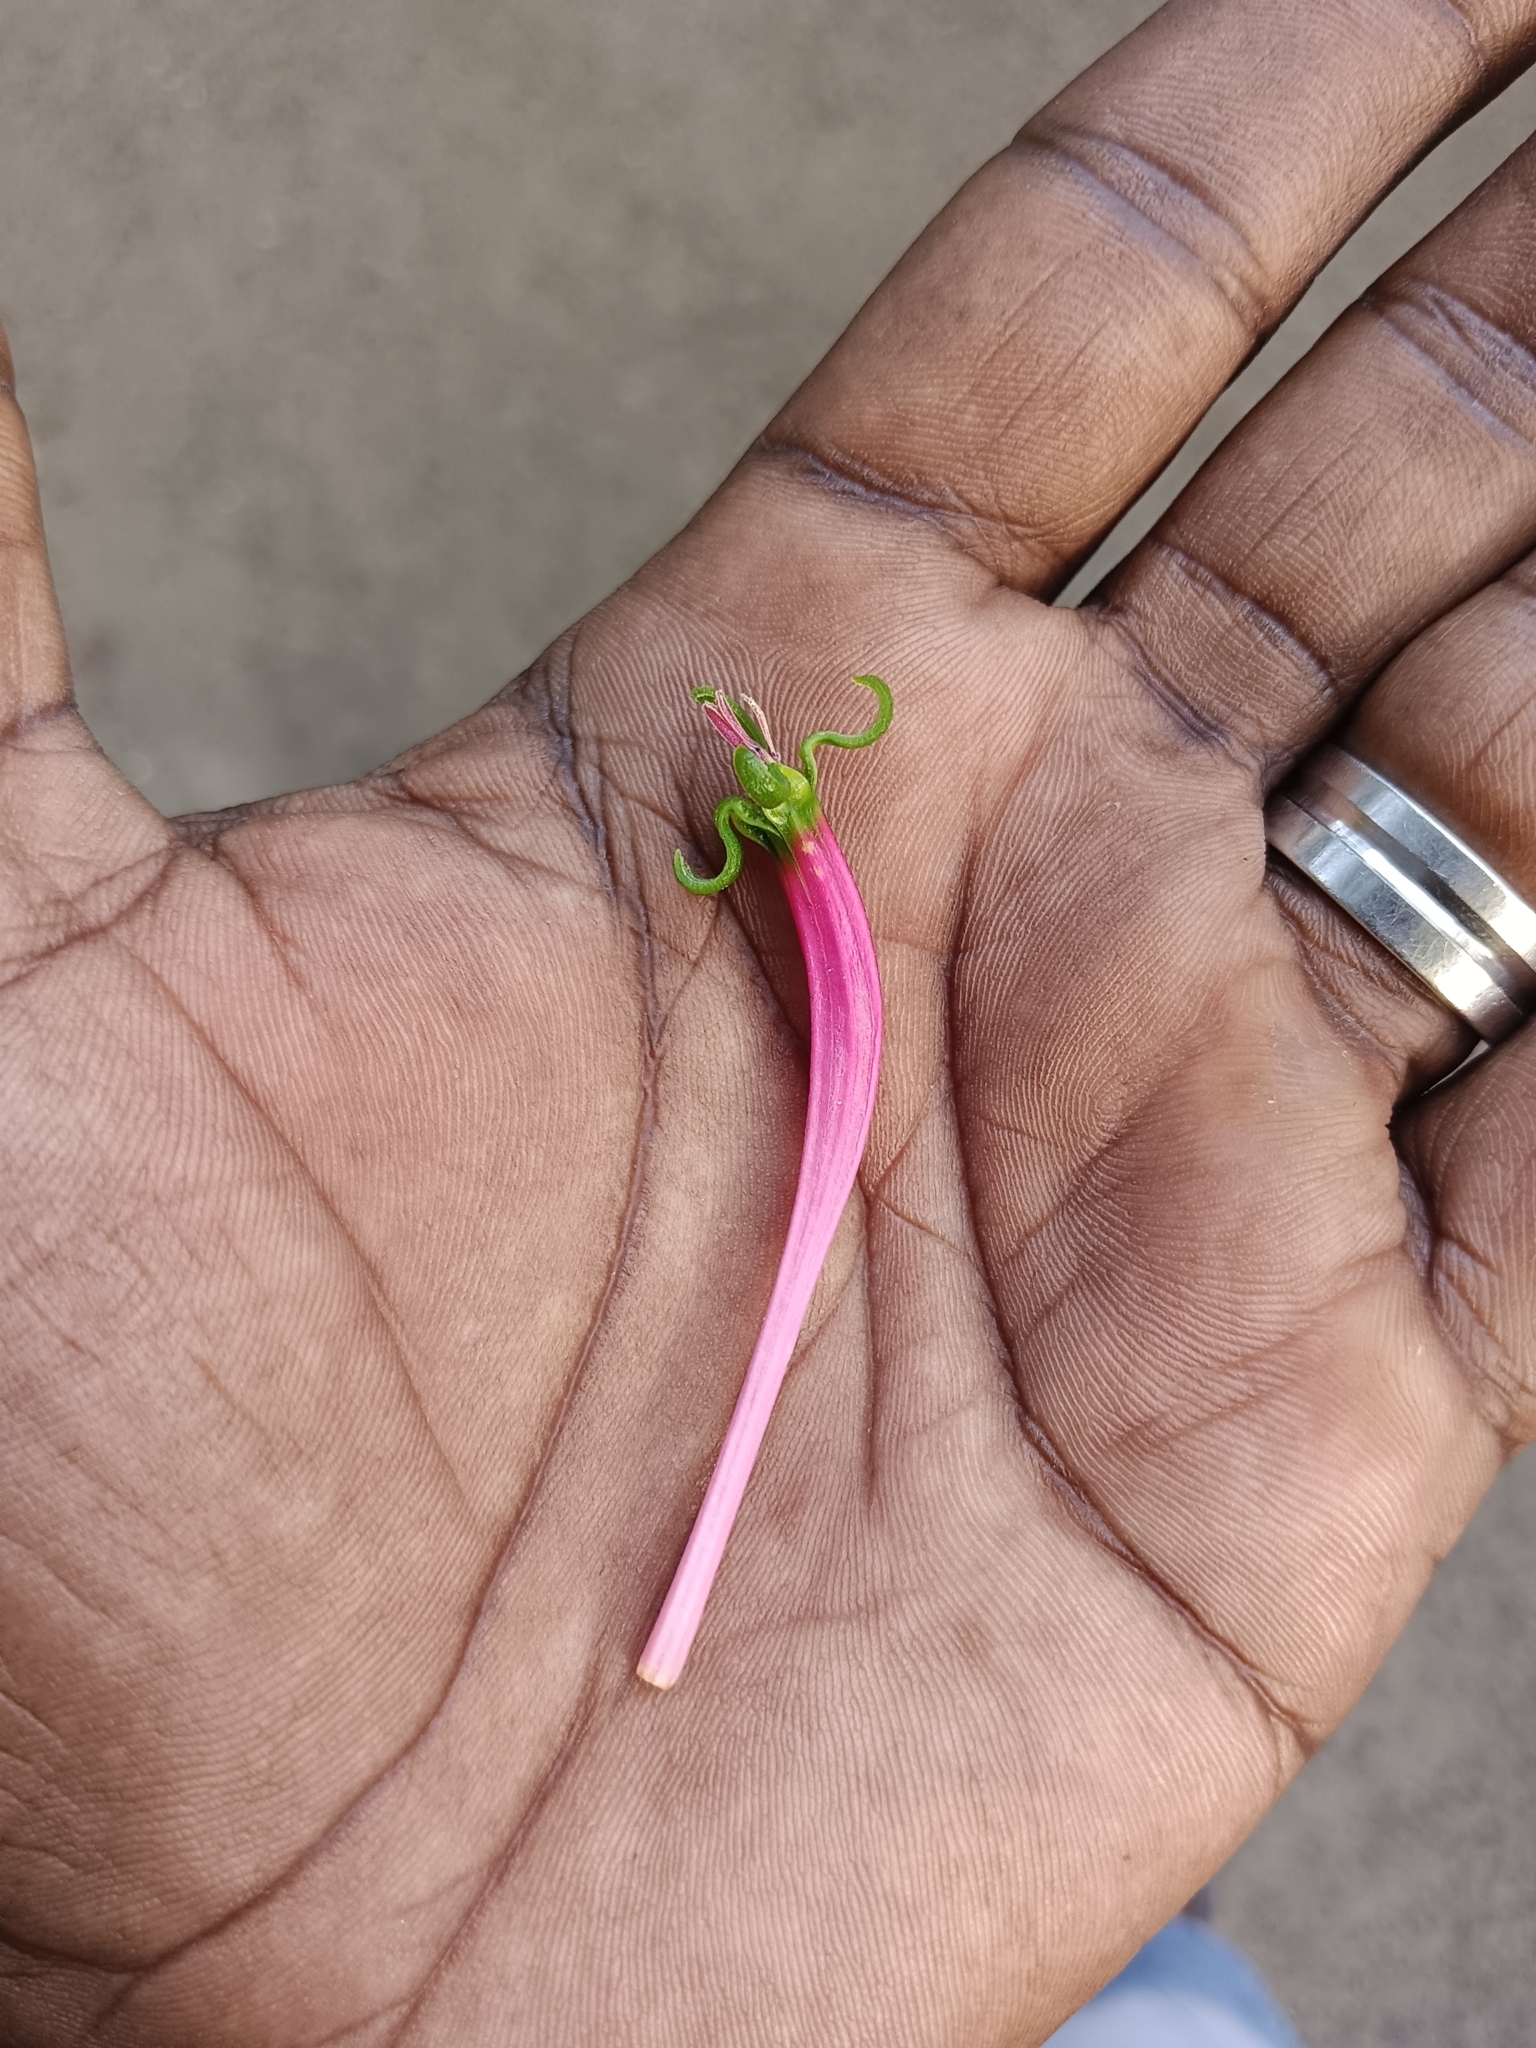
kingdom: Plantae
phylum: Tracheophyta
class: Magnoliopsida
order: Santalales
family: Loranthaceae
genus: Dendrophthoe
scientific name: Dendrophthoe falcata
